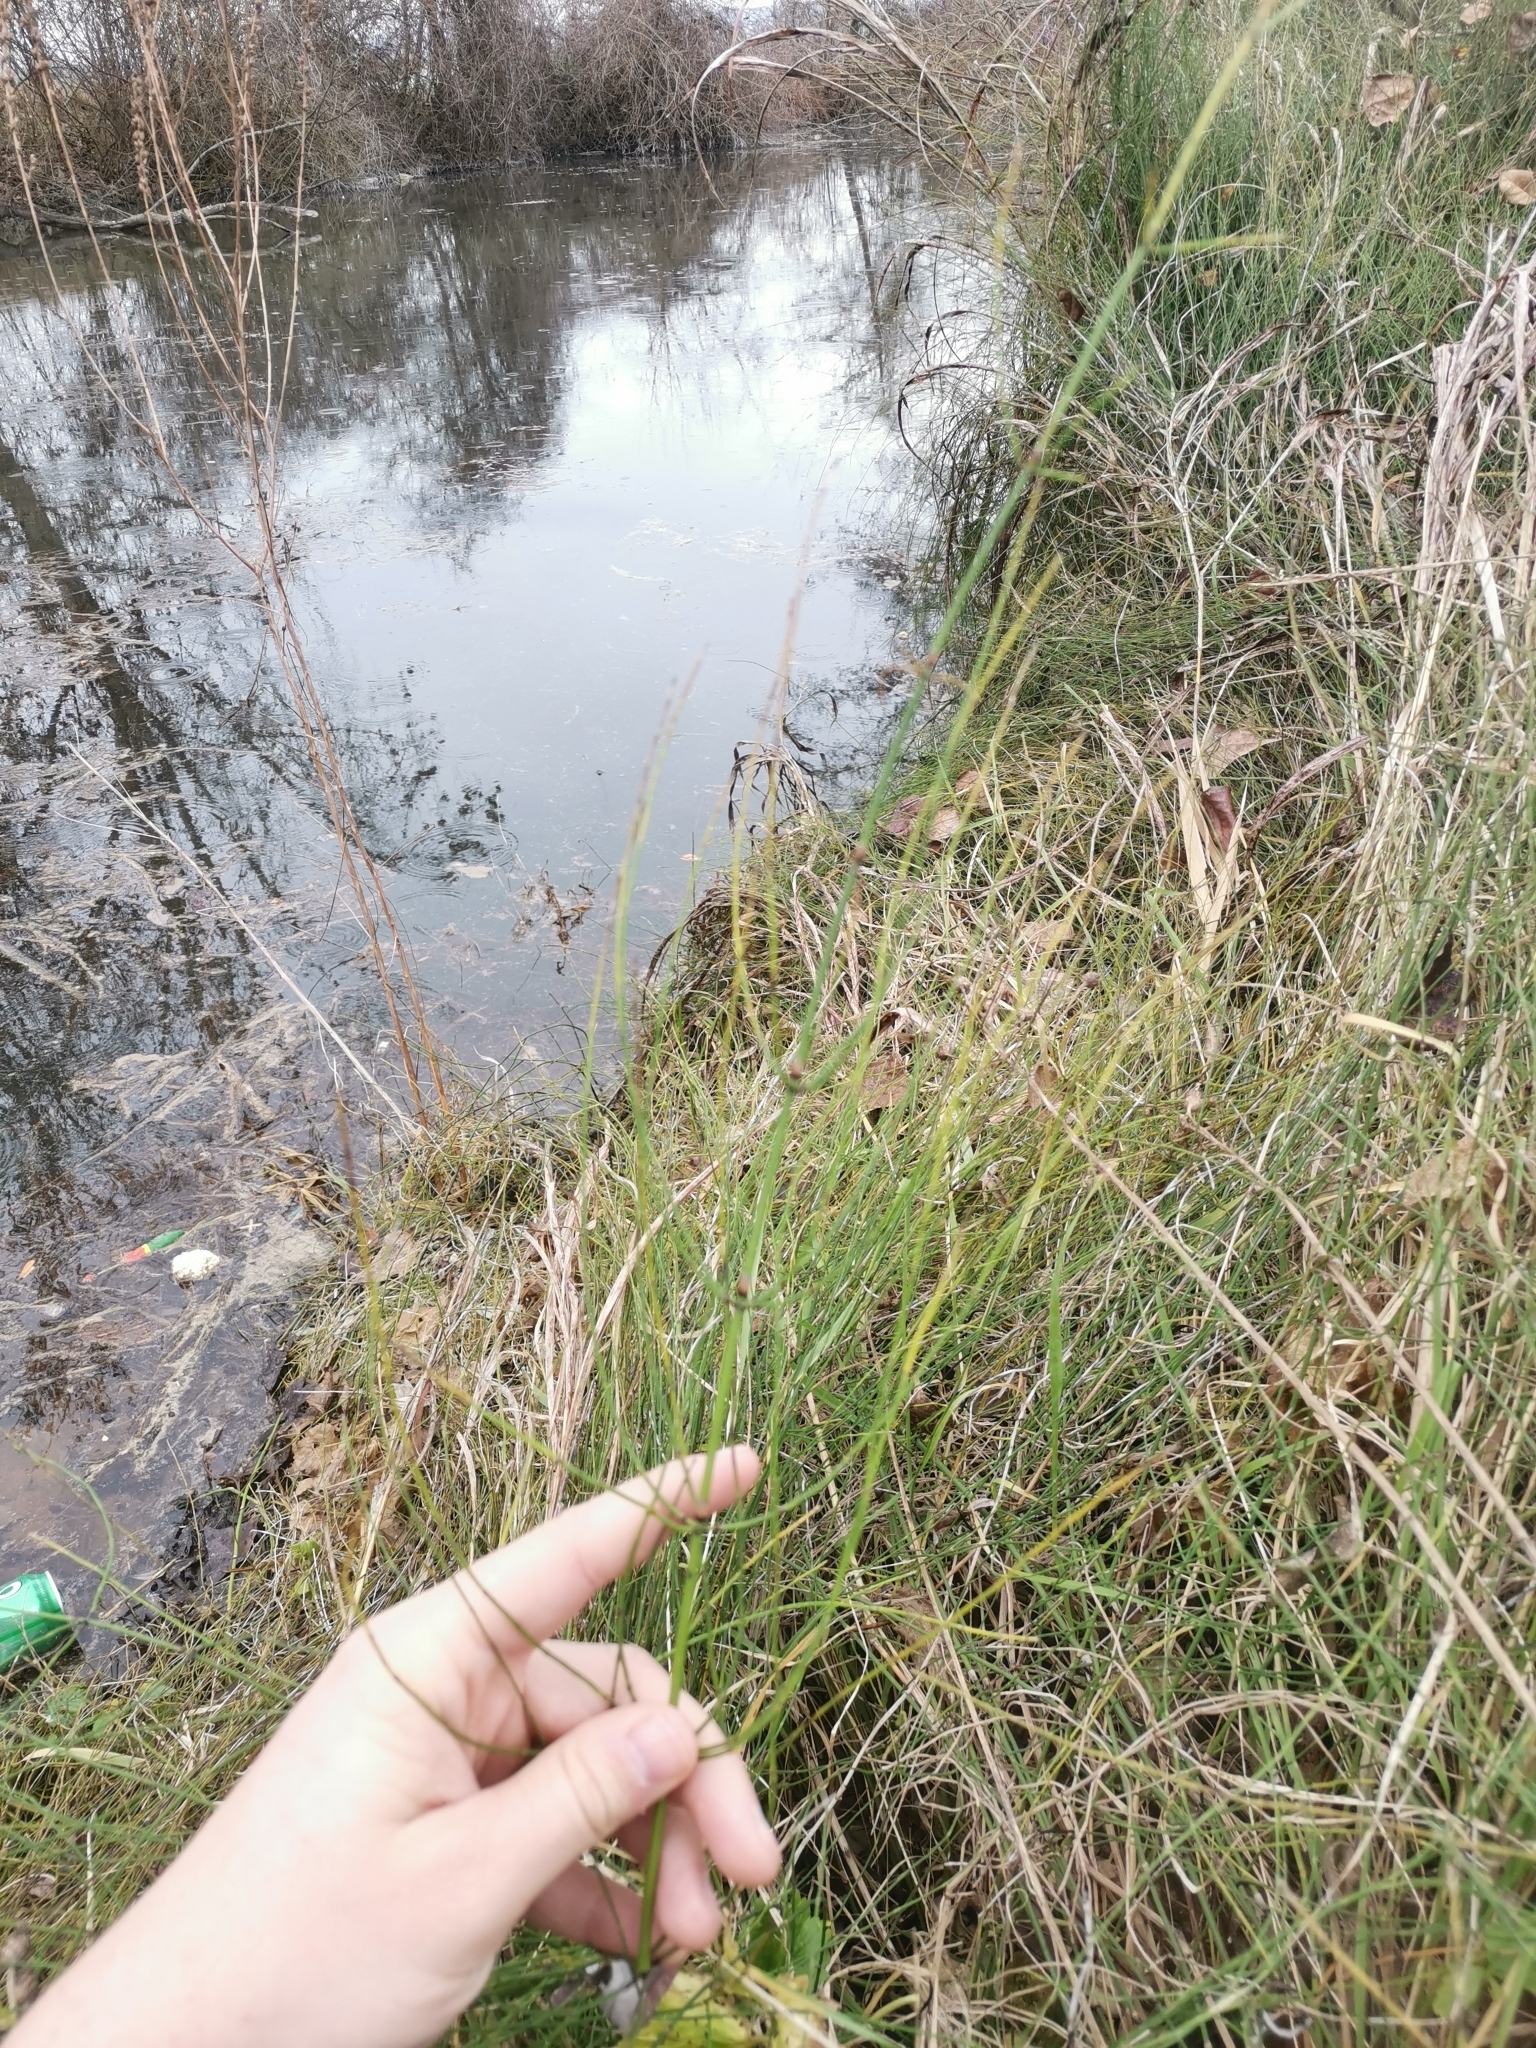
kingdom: Plantae
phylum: Tracheophyta
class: Polypodiopsida
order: Equisetales
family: Equisetaceae
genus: Equisetum
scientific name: Equisetum palustre
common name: Marsh horsetail
